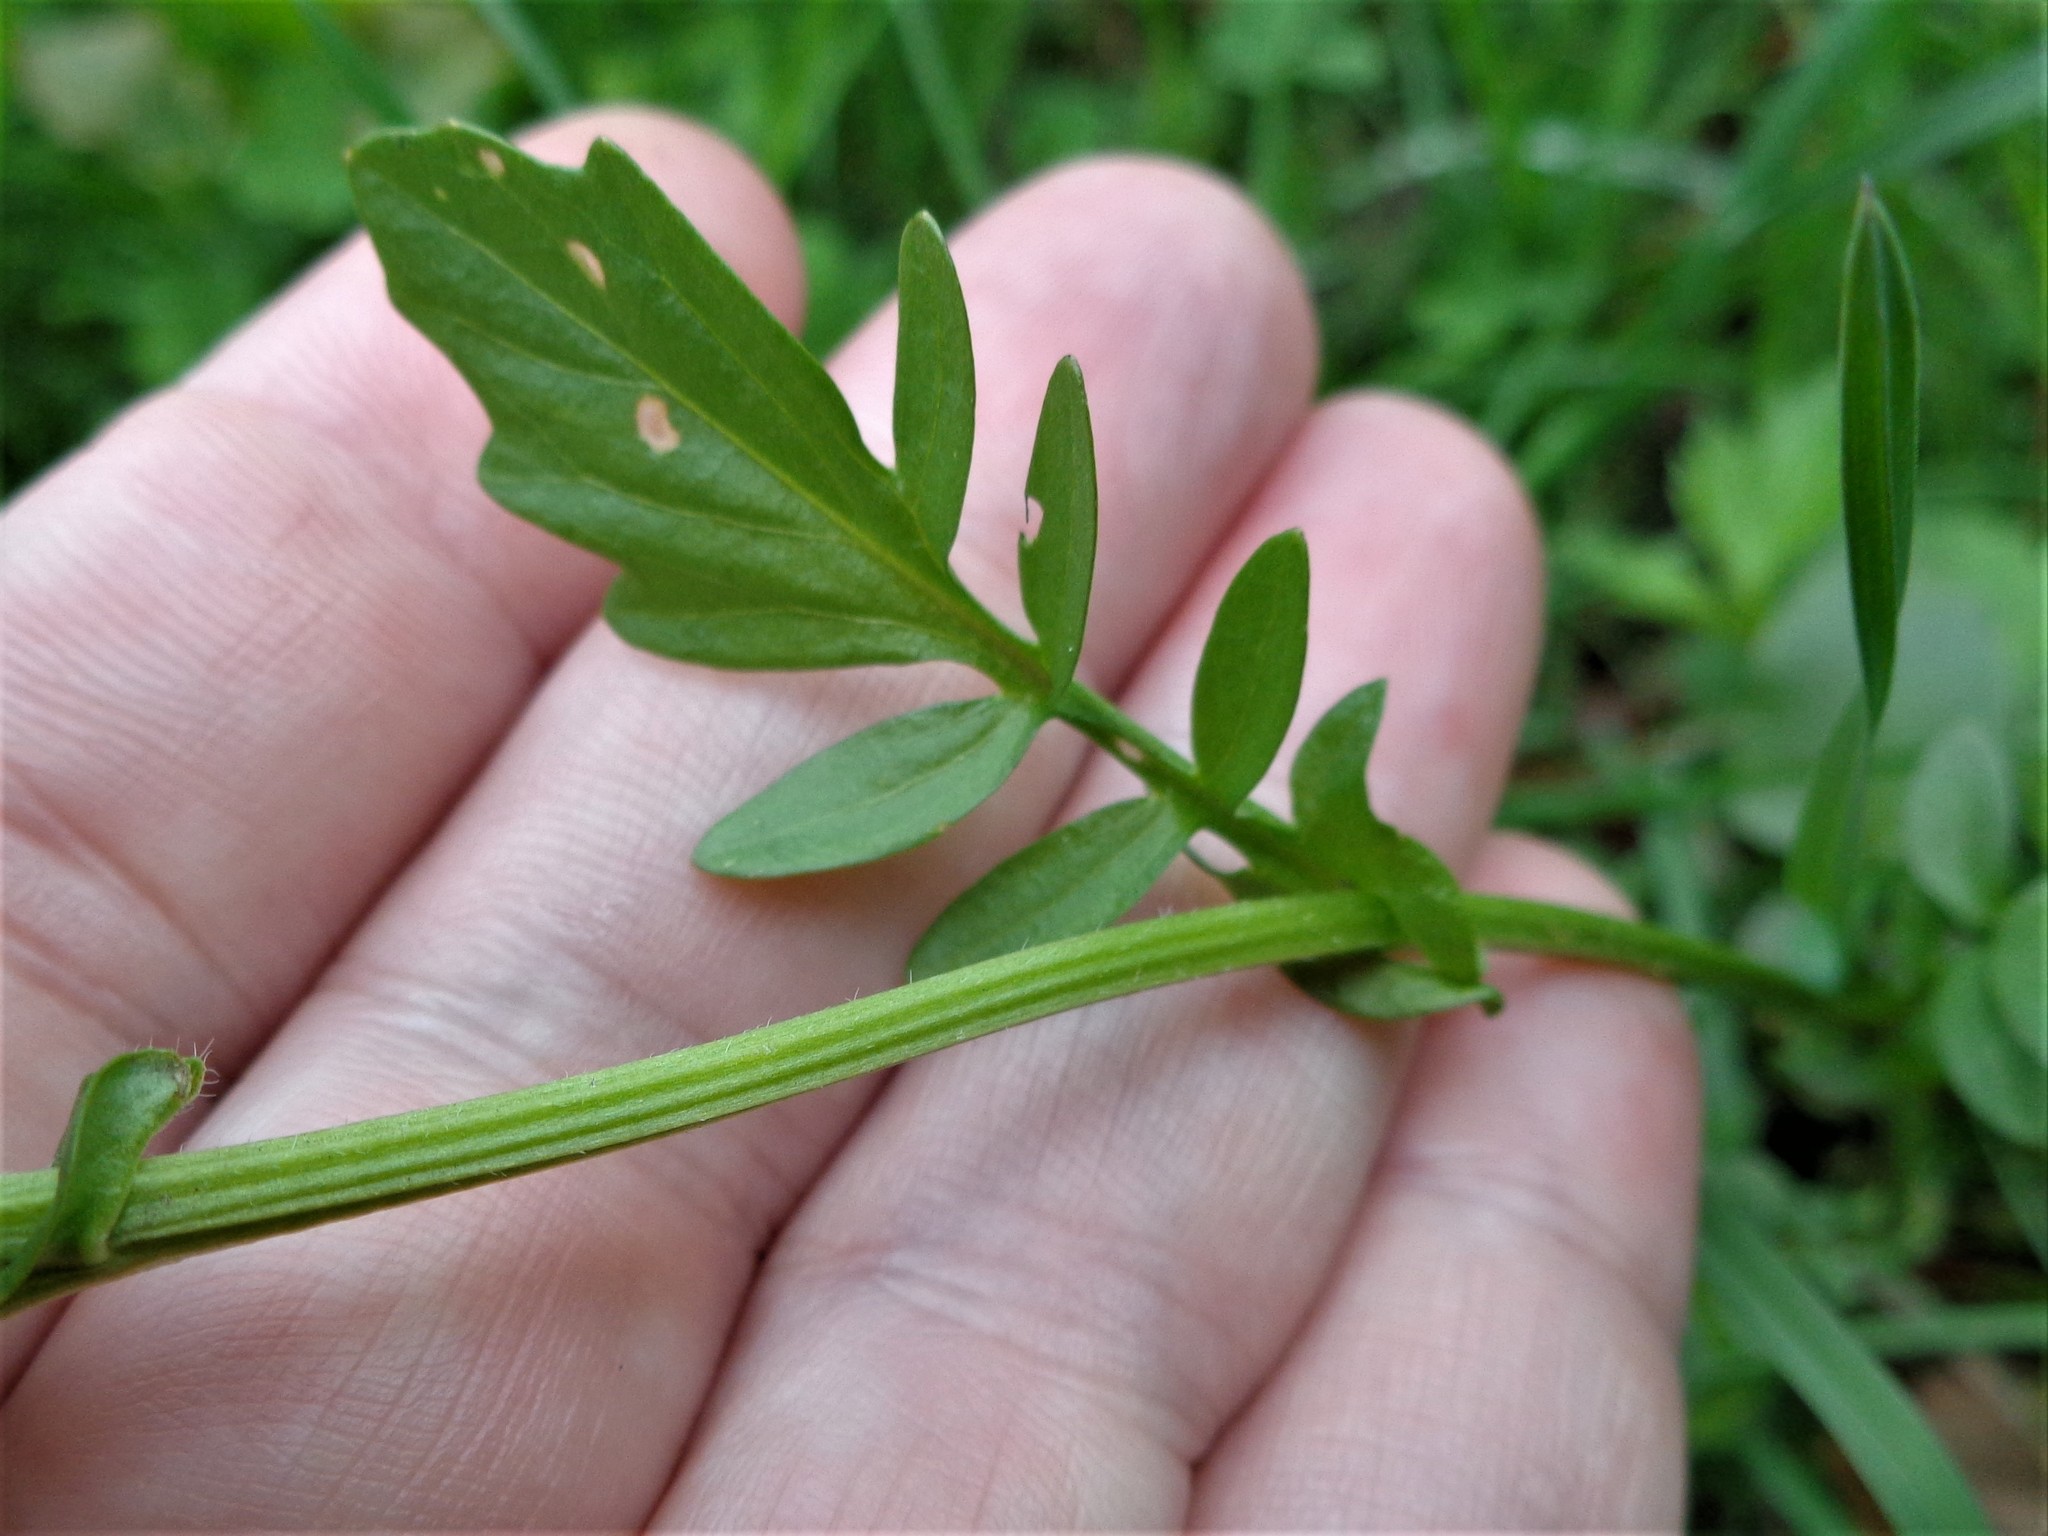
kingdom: Plantae
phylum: Tracheophyta
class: Magnoliopsida
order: Brassicales
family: Brassicaceae
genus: Barbarea
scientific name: Barbarea vulgaris
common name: Cressy-greens
